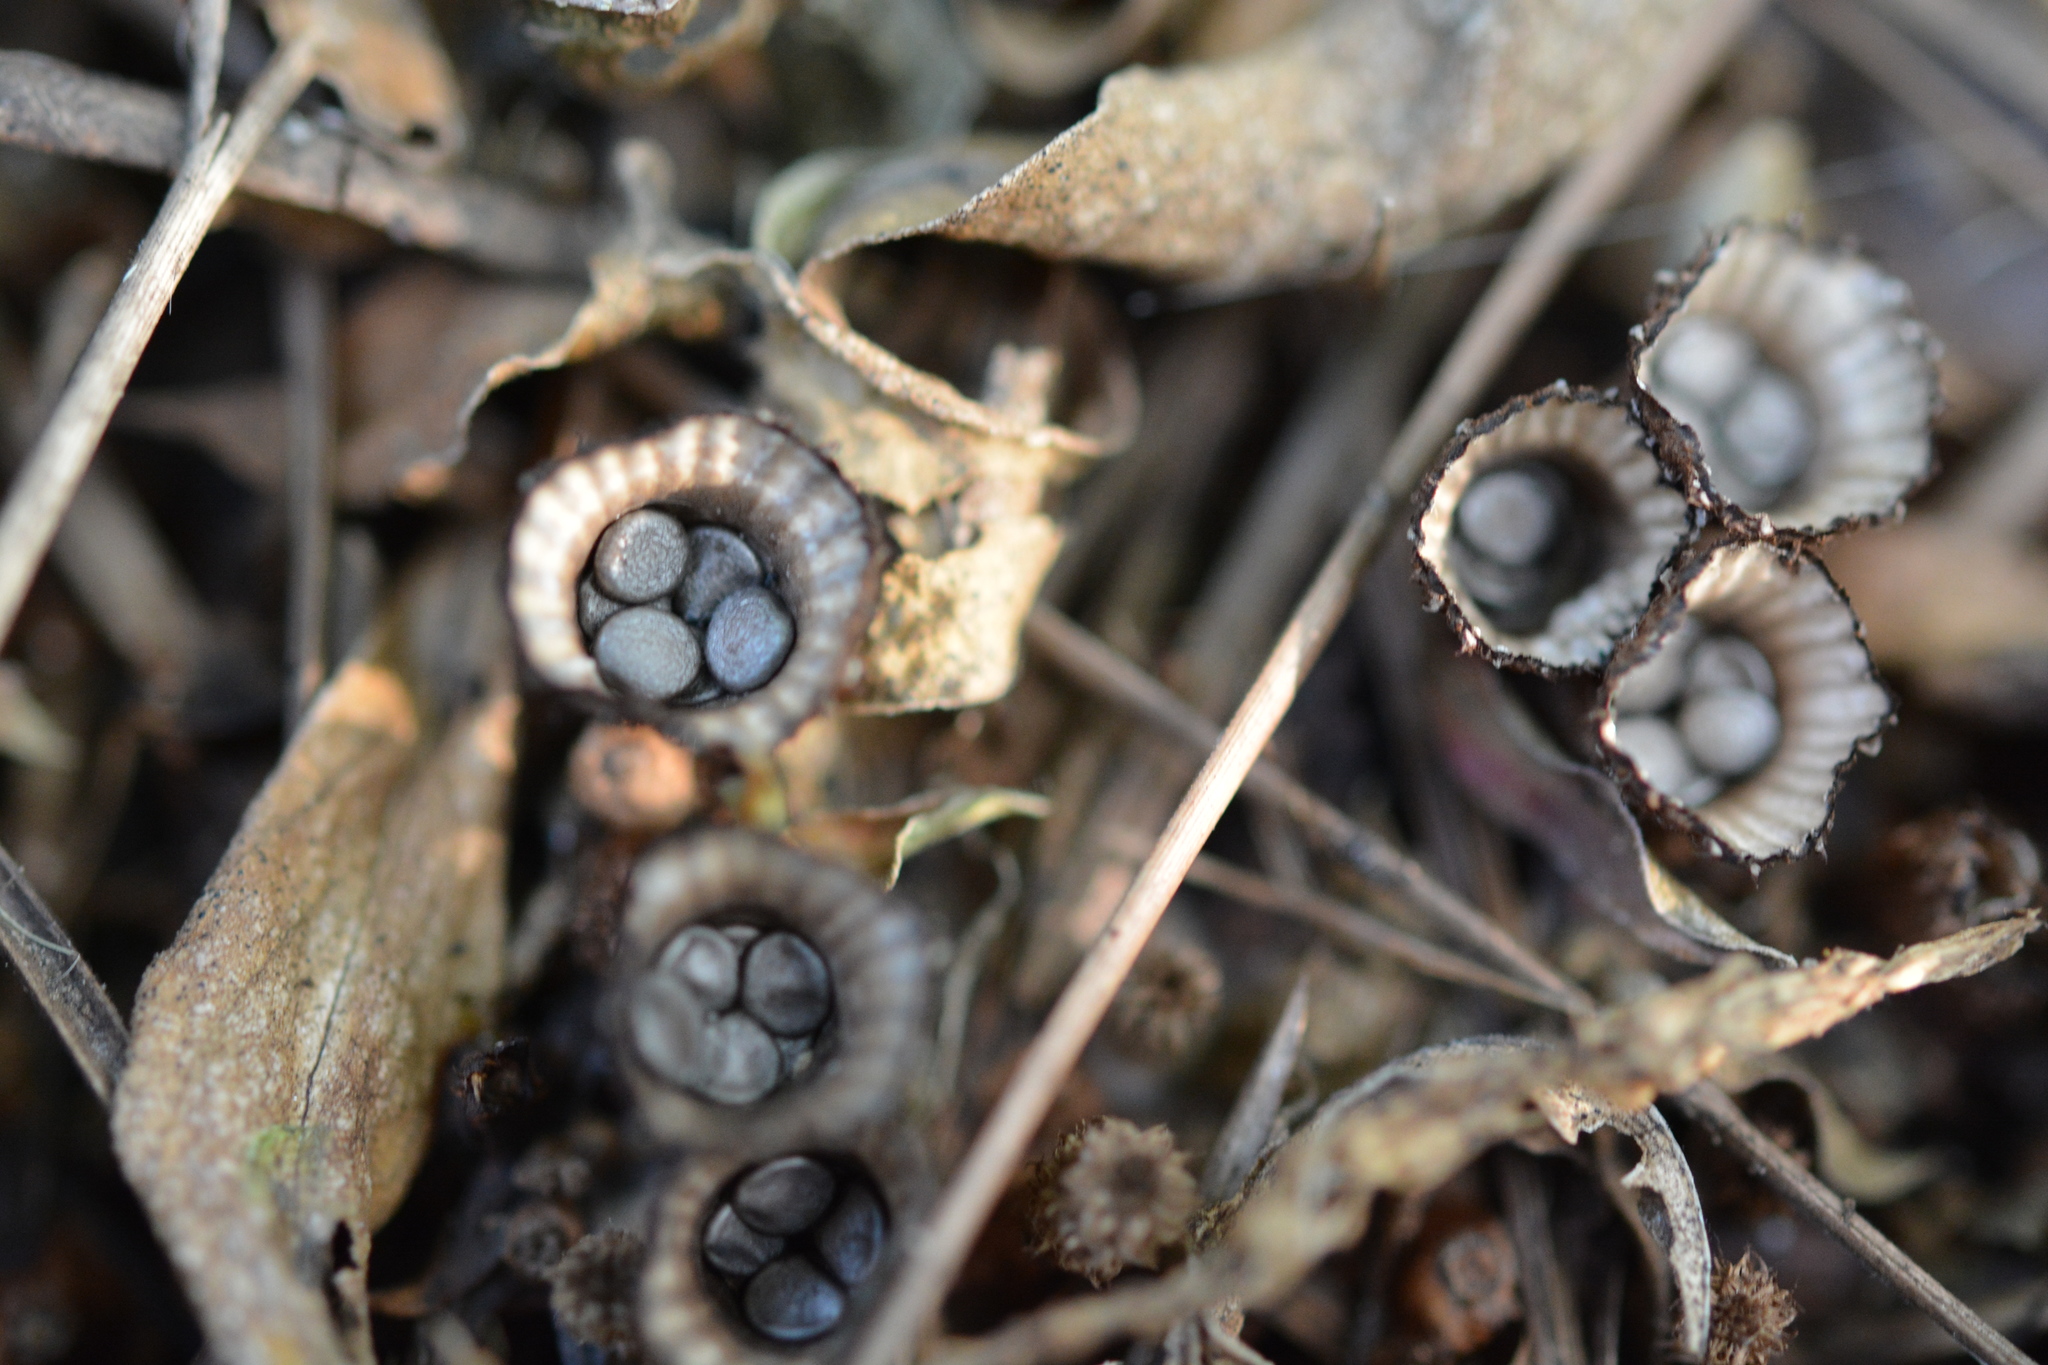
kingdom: Fungi
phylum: Basidiomycota
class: Agaricomycetes
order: Agaricales
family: Agaricaceae
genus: Cyathus
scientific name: Cyathus striatus
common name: Fluted bird's nest
